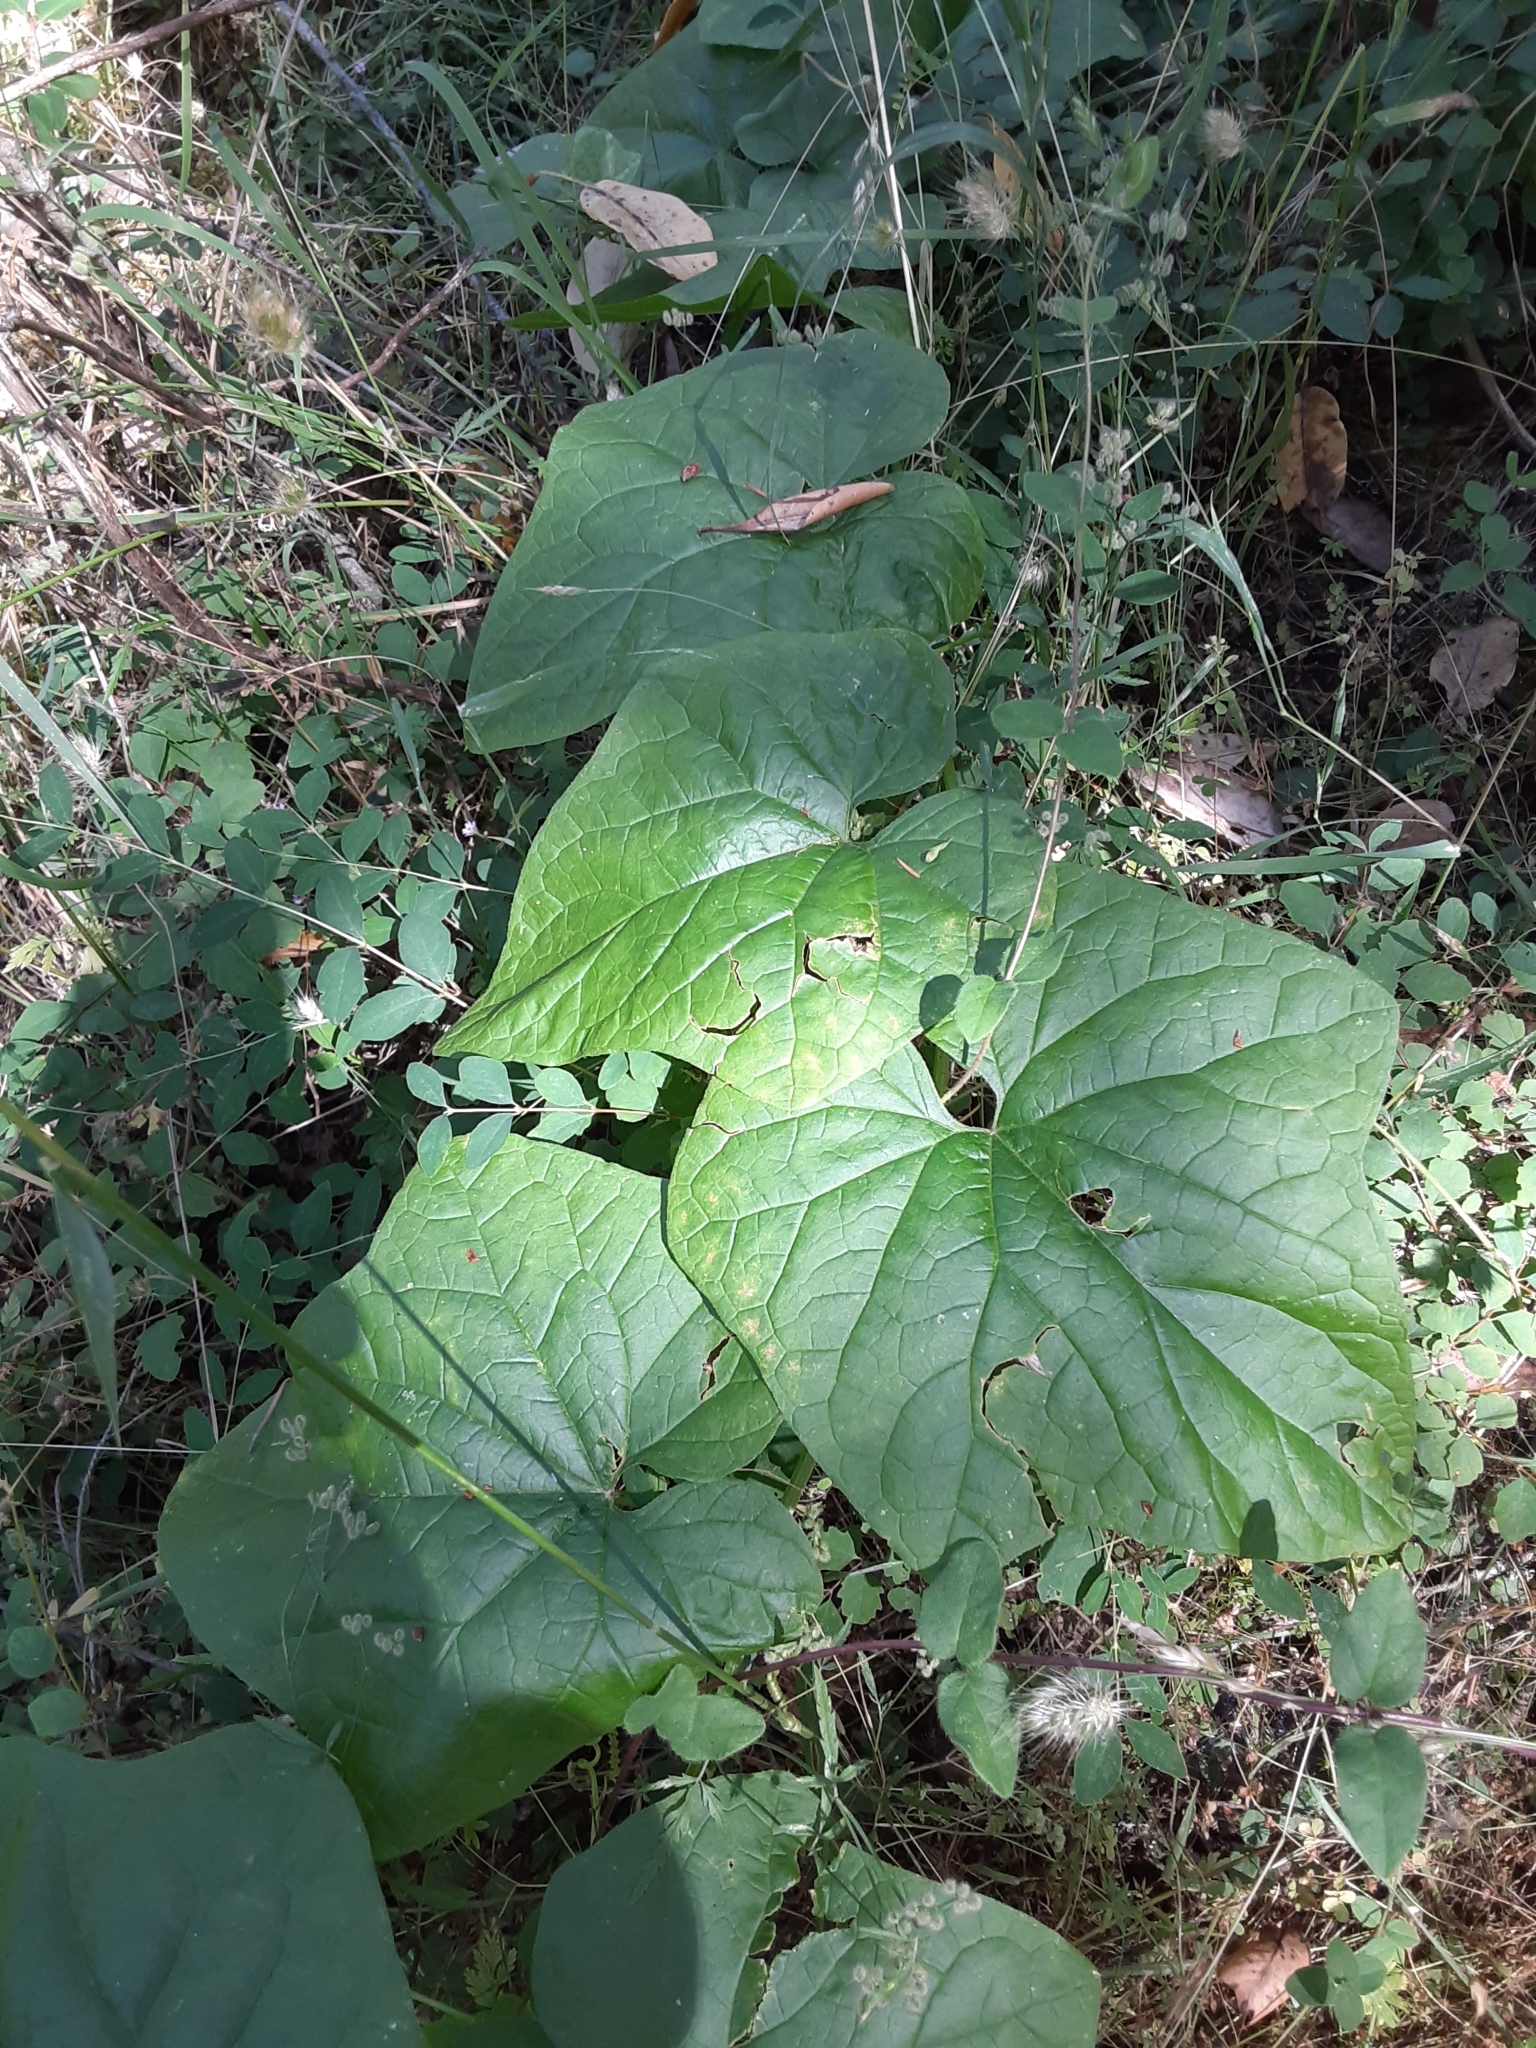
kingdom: Plantae
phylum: Tracheophyta
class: Magnoliopsida
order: Cucurbitales
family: Cucurbitaceae
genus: Marah
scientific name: Marah oregana
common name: Coastal manroot
